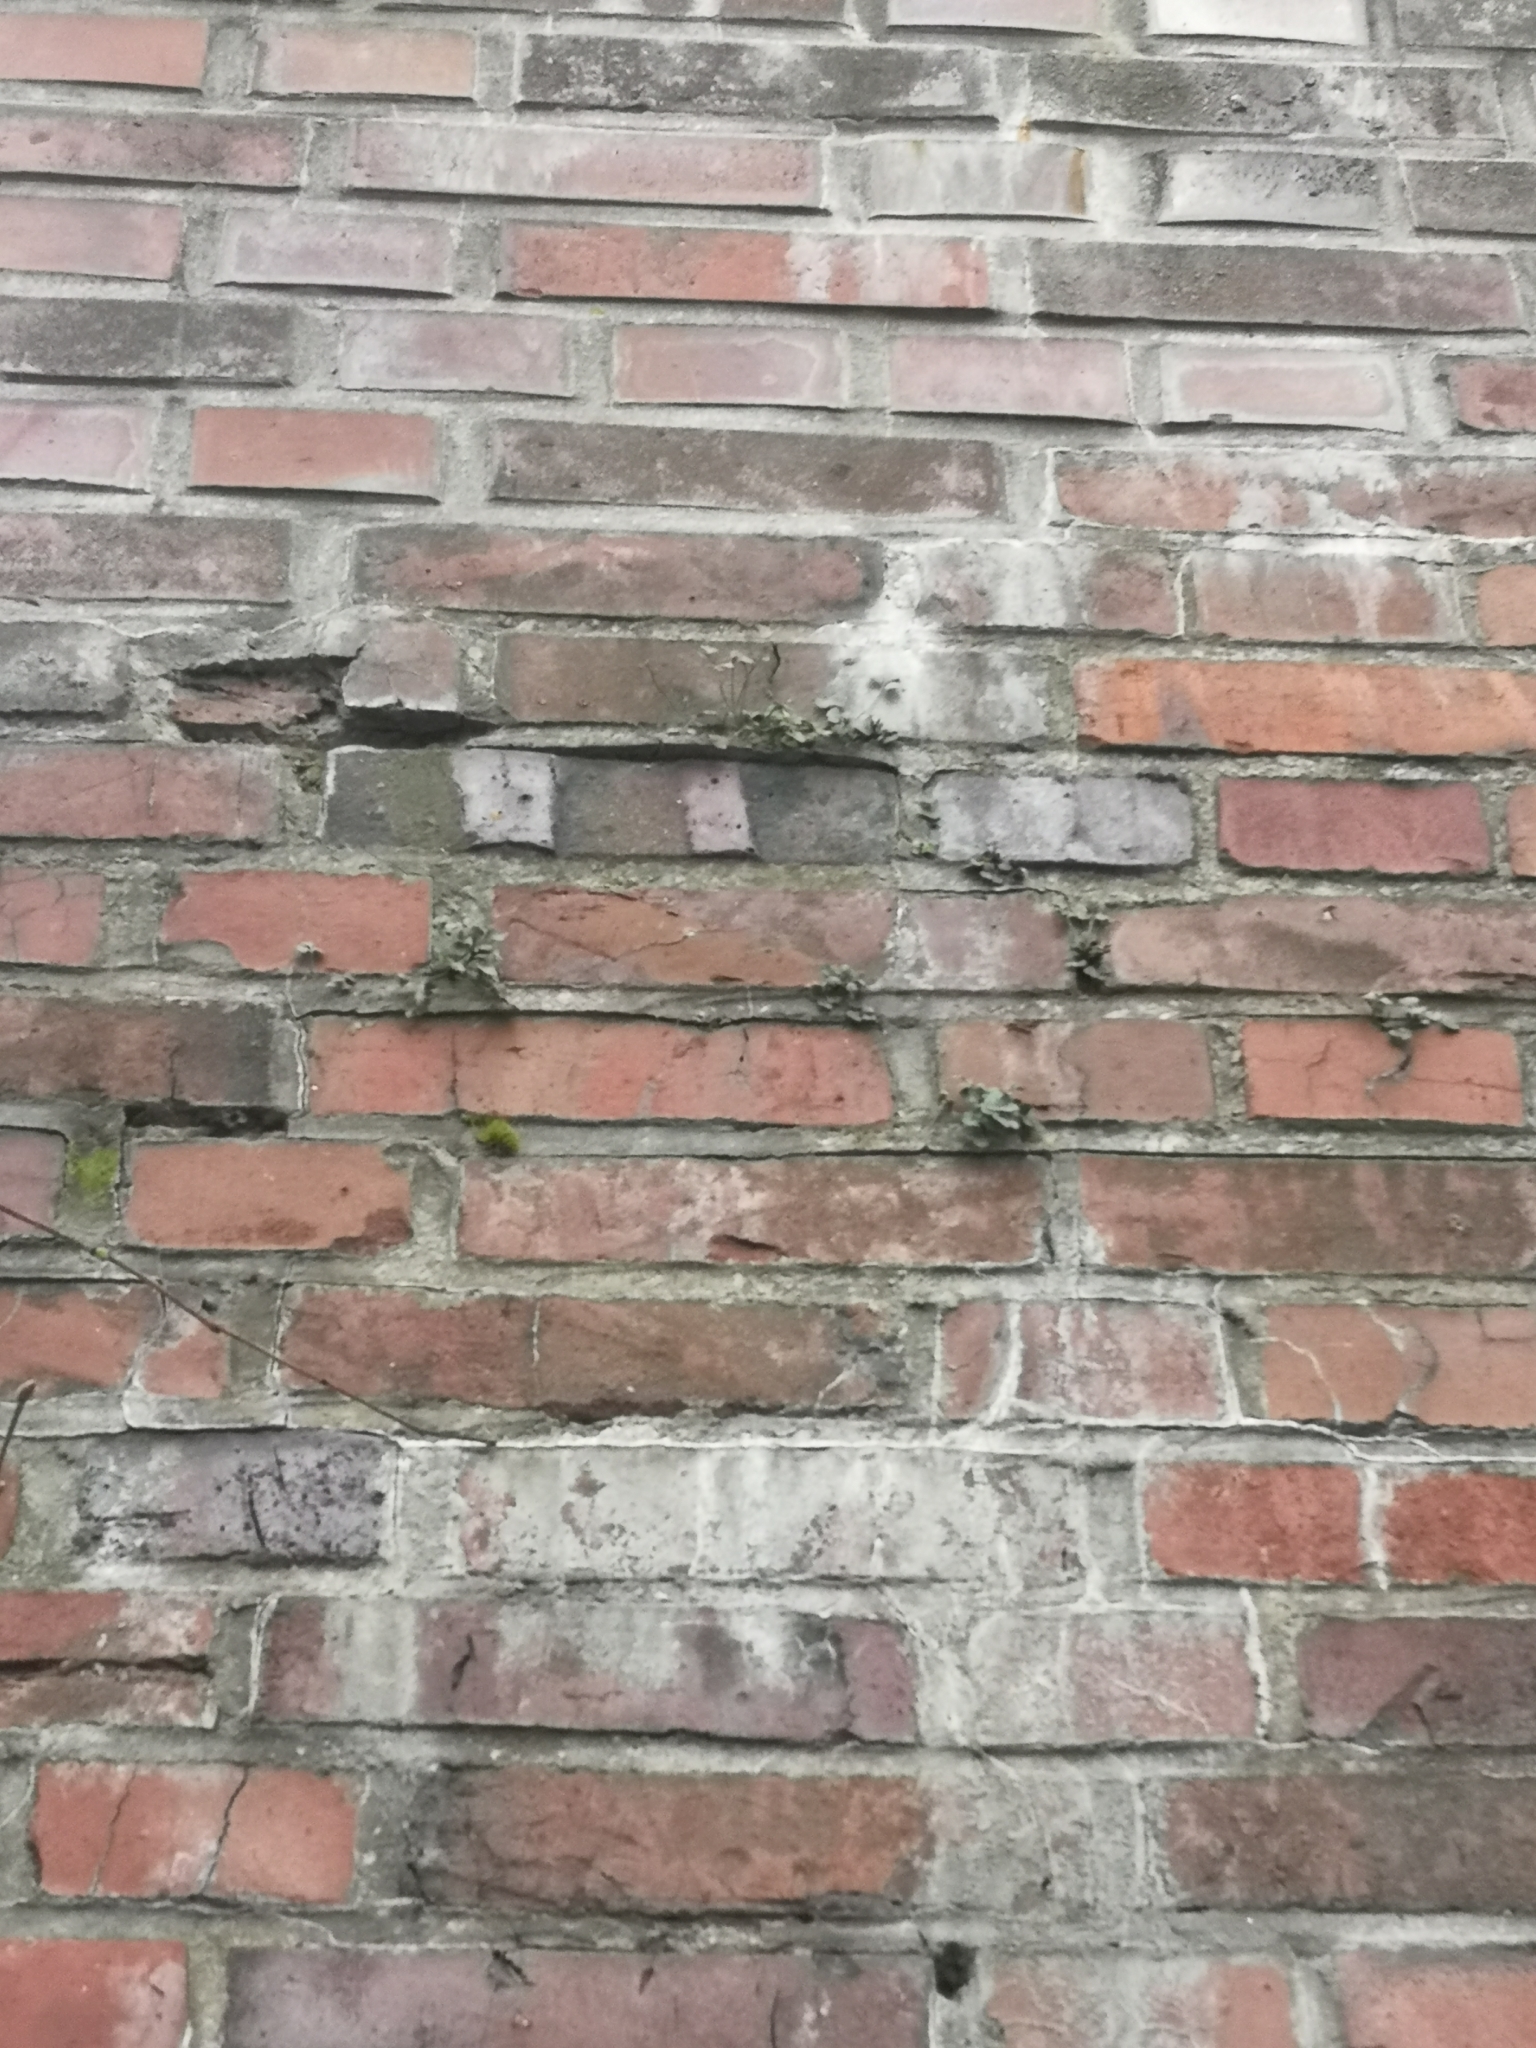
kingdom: Plantae
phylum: Tracheophyta
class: Polypodiopsida
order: Polypodiales
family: Aspleniaceae
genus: Asplenium
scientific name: Asplenium ruta-muraria
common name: Wall-rue
